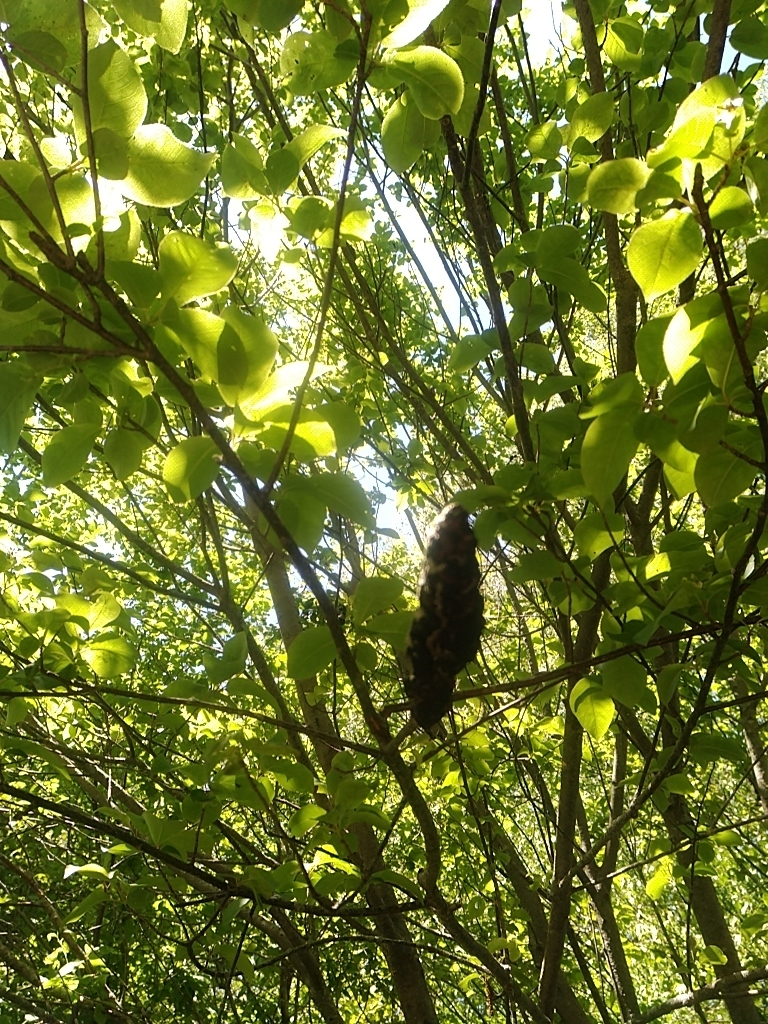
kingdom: Fungi
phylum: Ascomycota
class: Dothideomycetes
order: Venturiales
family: Venturiaceae
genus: Apiosporina
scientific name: Apiosporina morbosa
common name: Black knot
